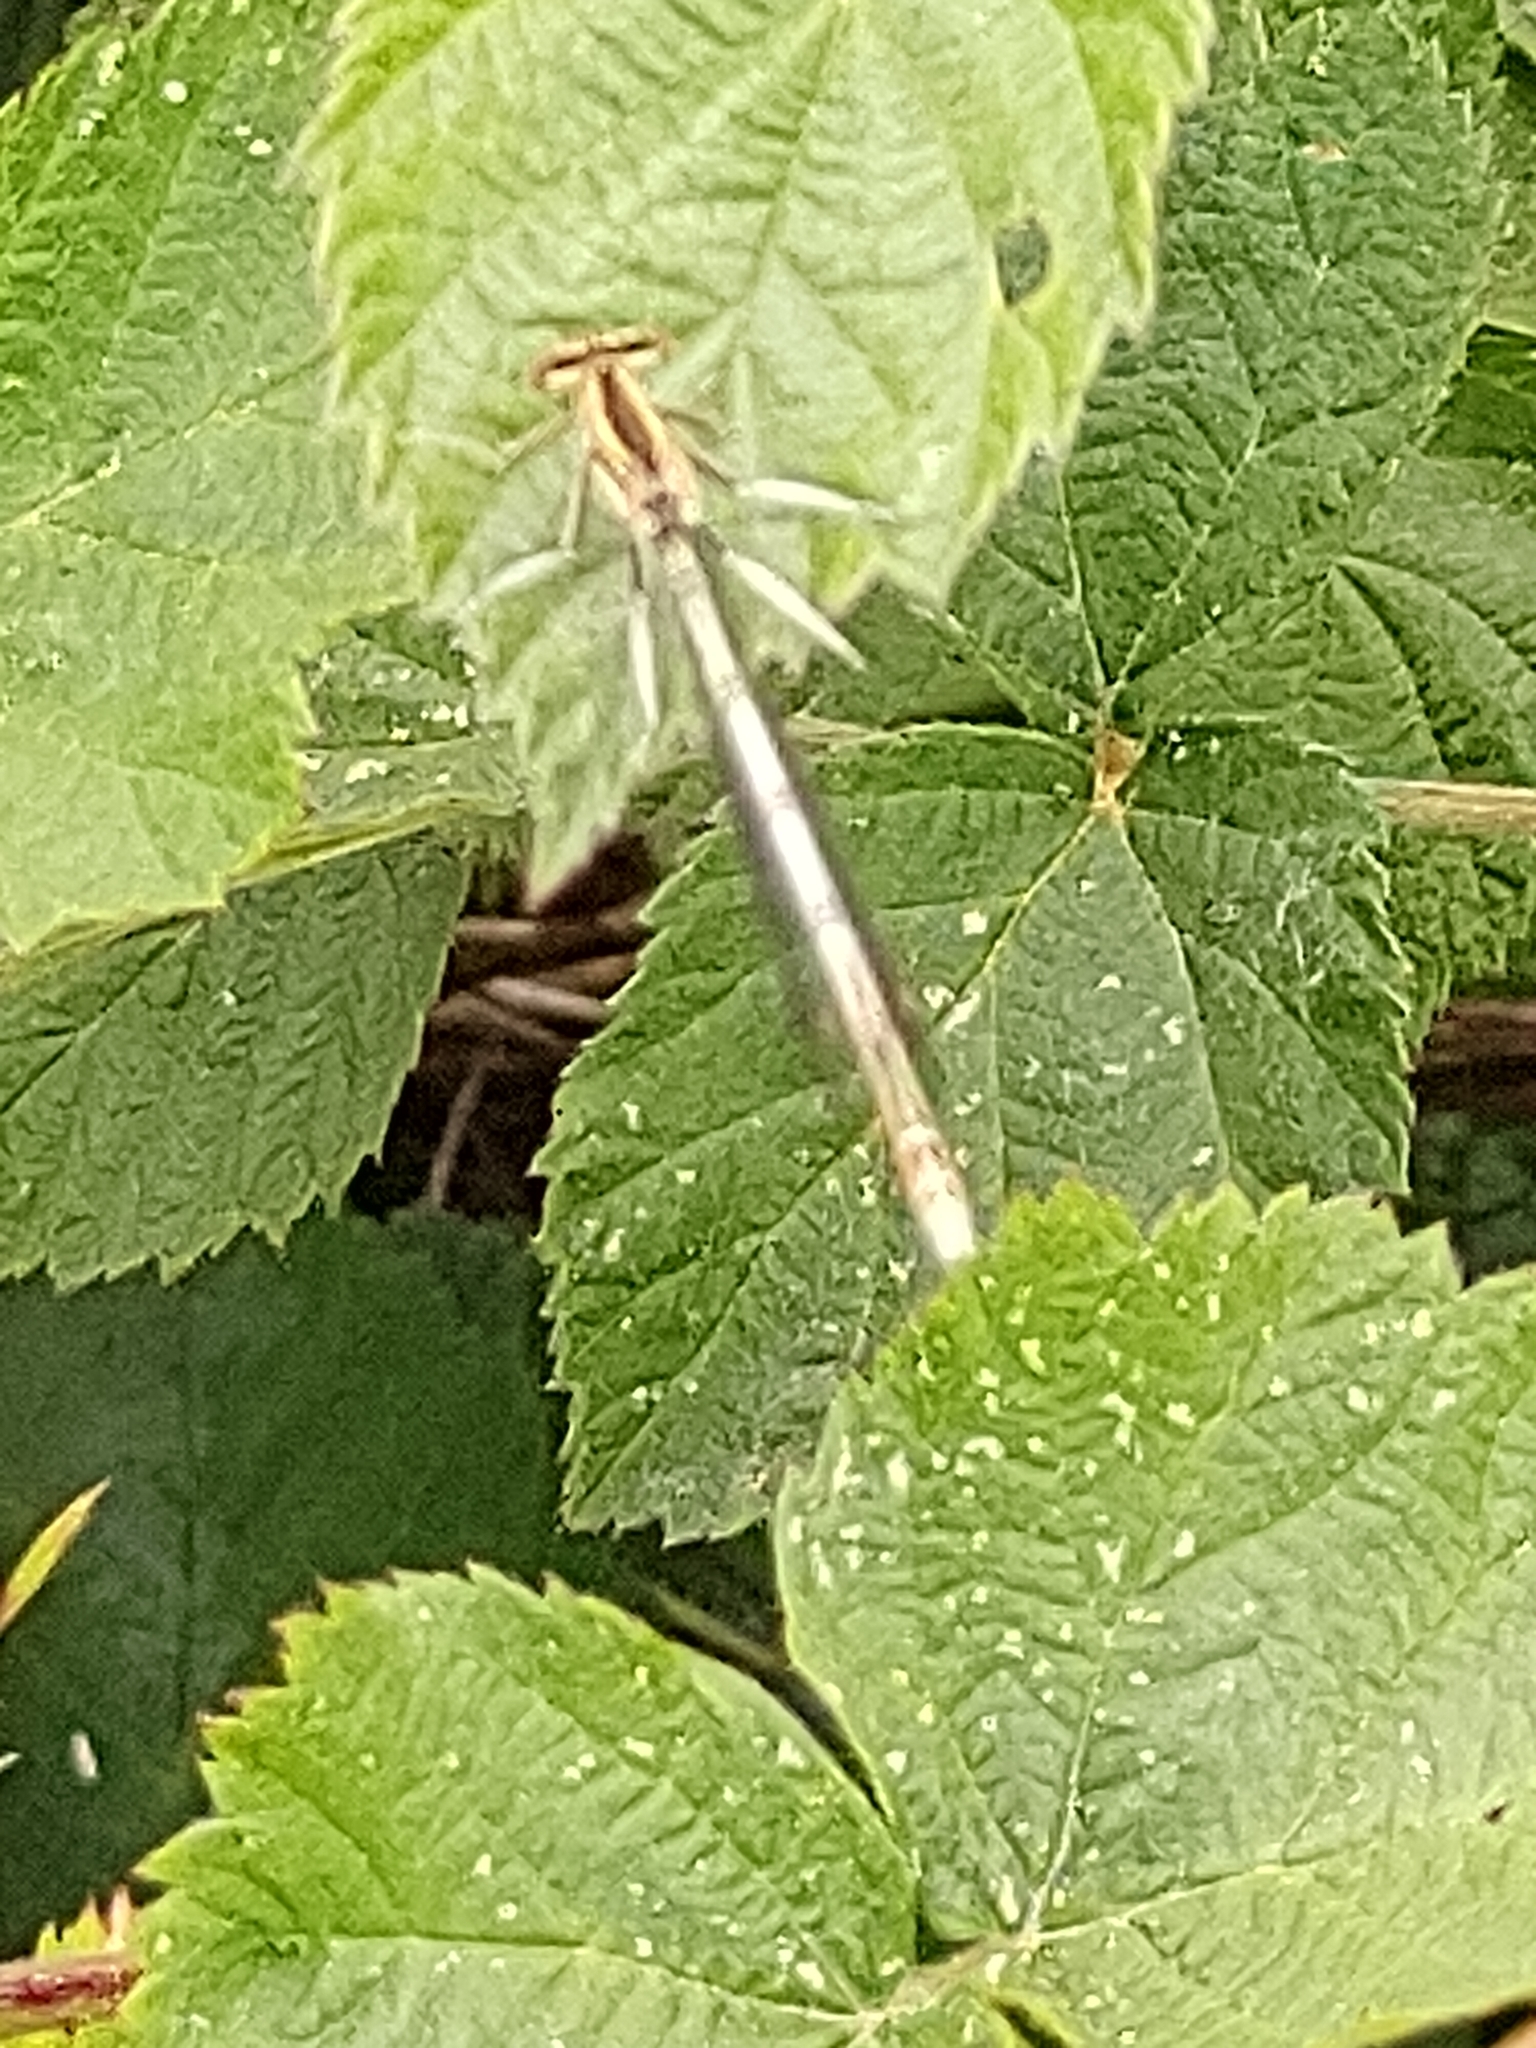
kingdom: Animalia
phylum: Arthropoda
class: Insecta
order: Odonata
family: Platycnemididae
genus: Platycnemis
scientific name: Platycnemis pennipes
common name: White-legged damselfly
